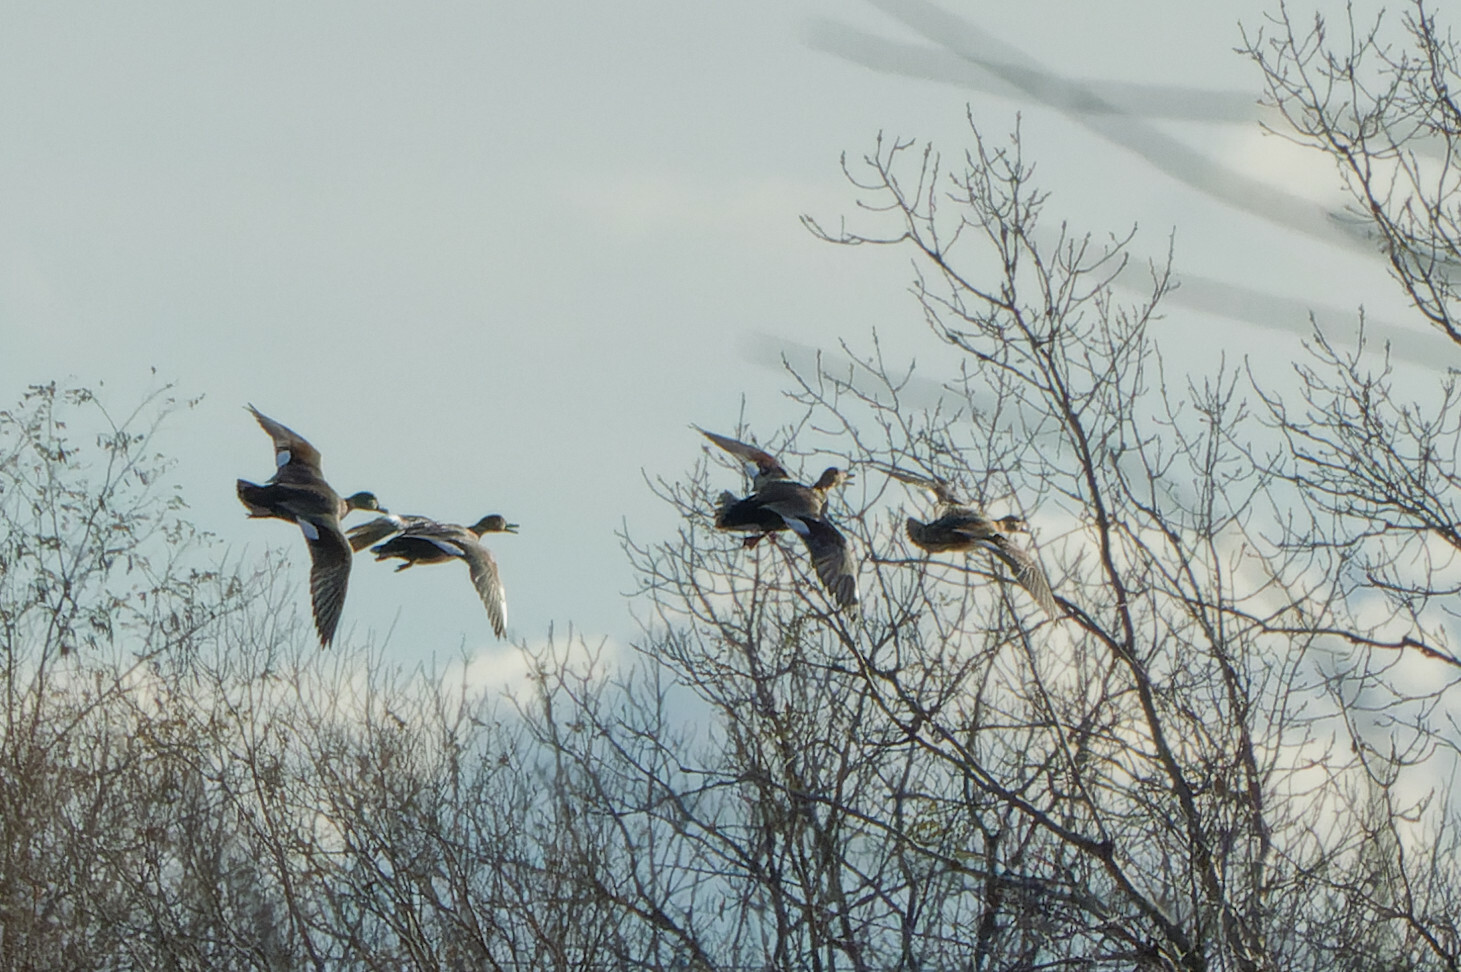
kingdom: Animalia
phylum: Chordata
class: Aves
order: Anseriformes
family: Anatidae
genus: Mareca
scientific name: Mareca strepera
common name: Gadwall
